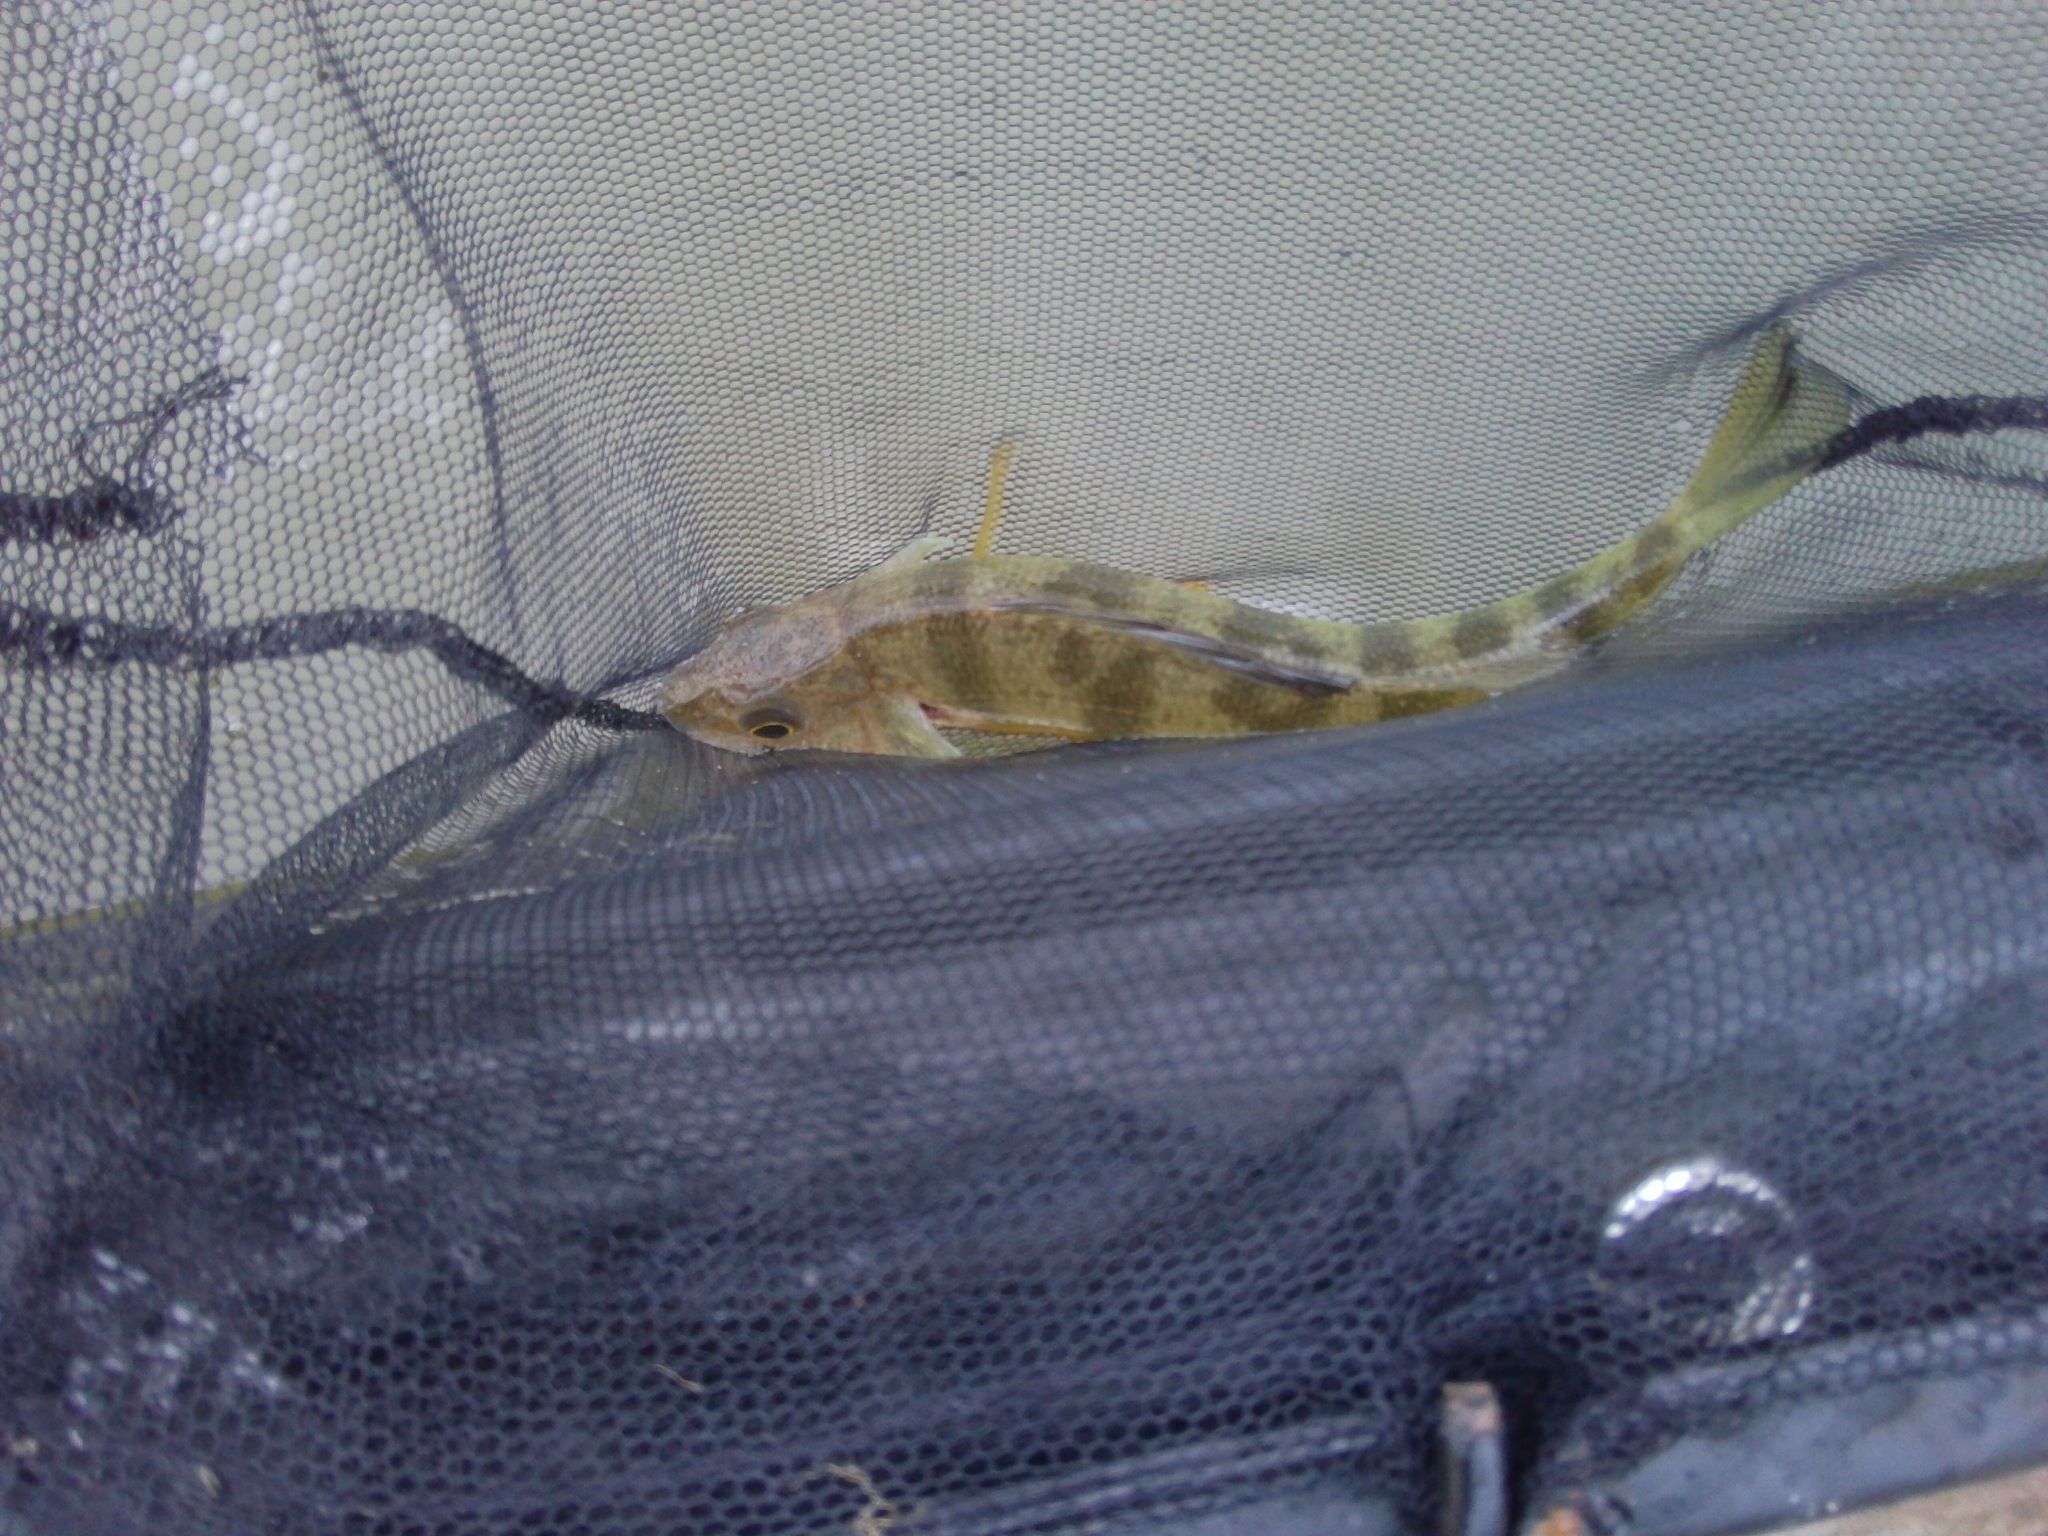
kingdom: Animalia
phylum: Chordata
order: Perciformes
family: Percidae
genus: Perca
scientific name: Perca flavescens
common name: Yellow perch
